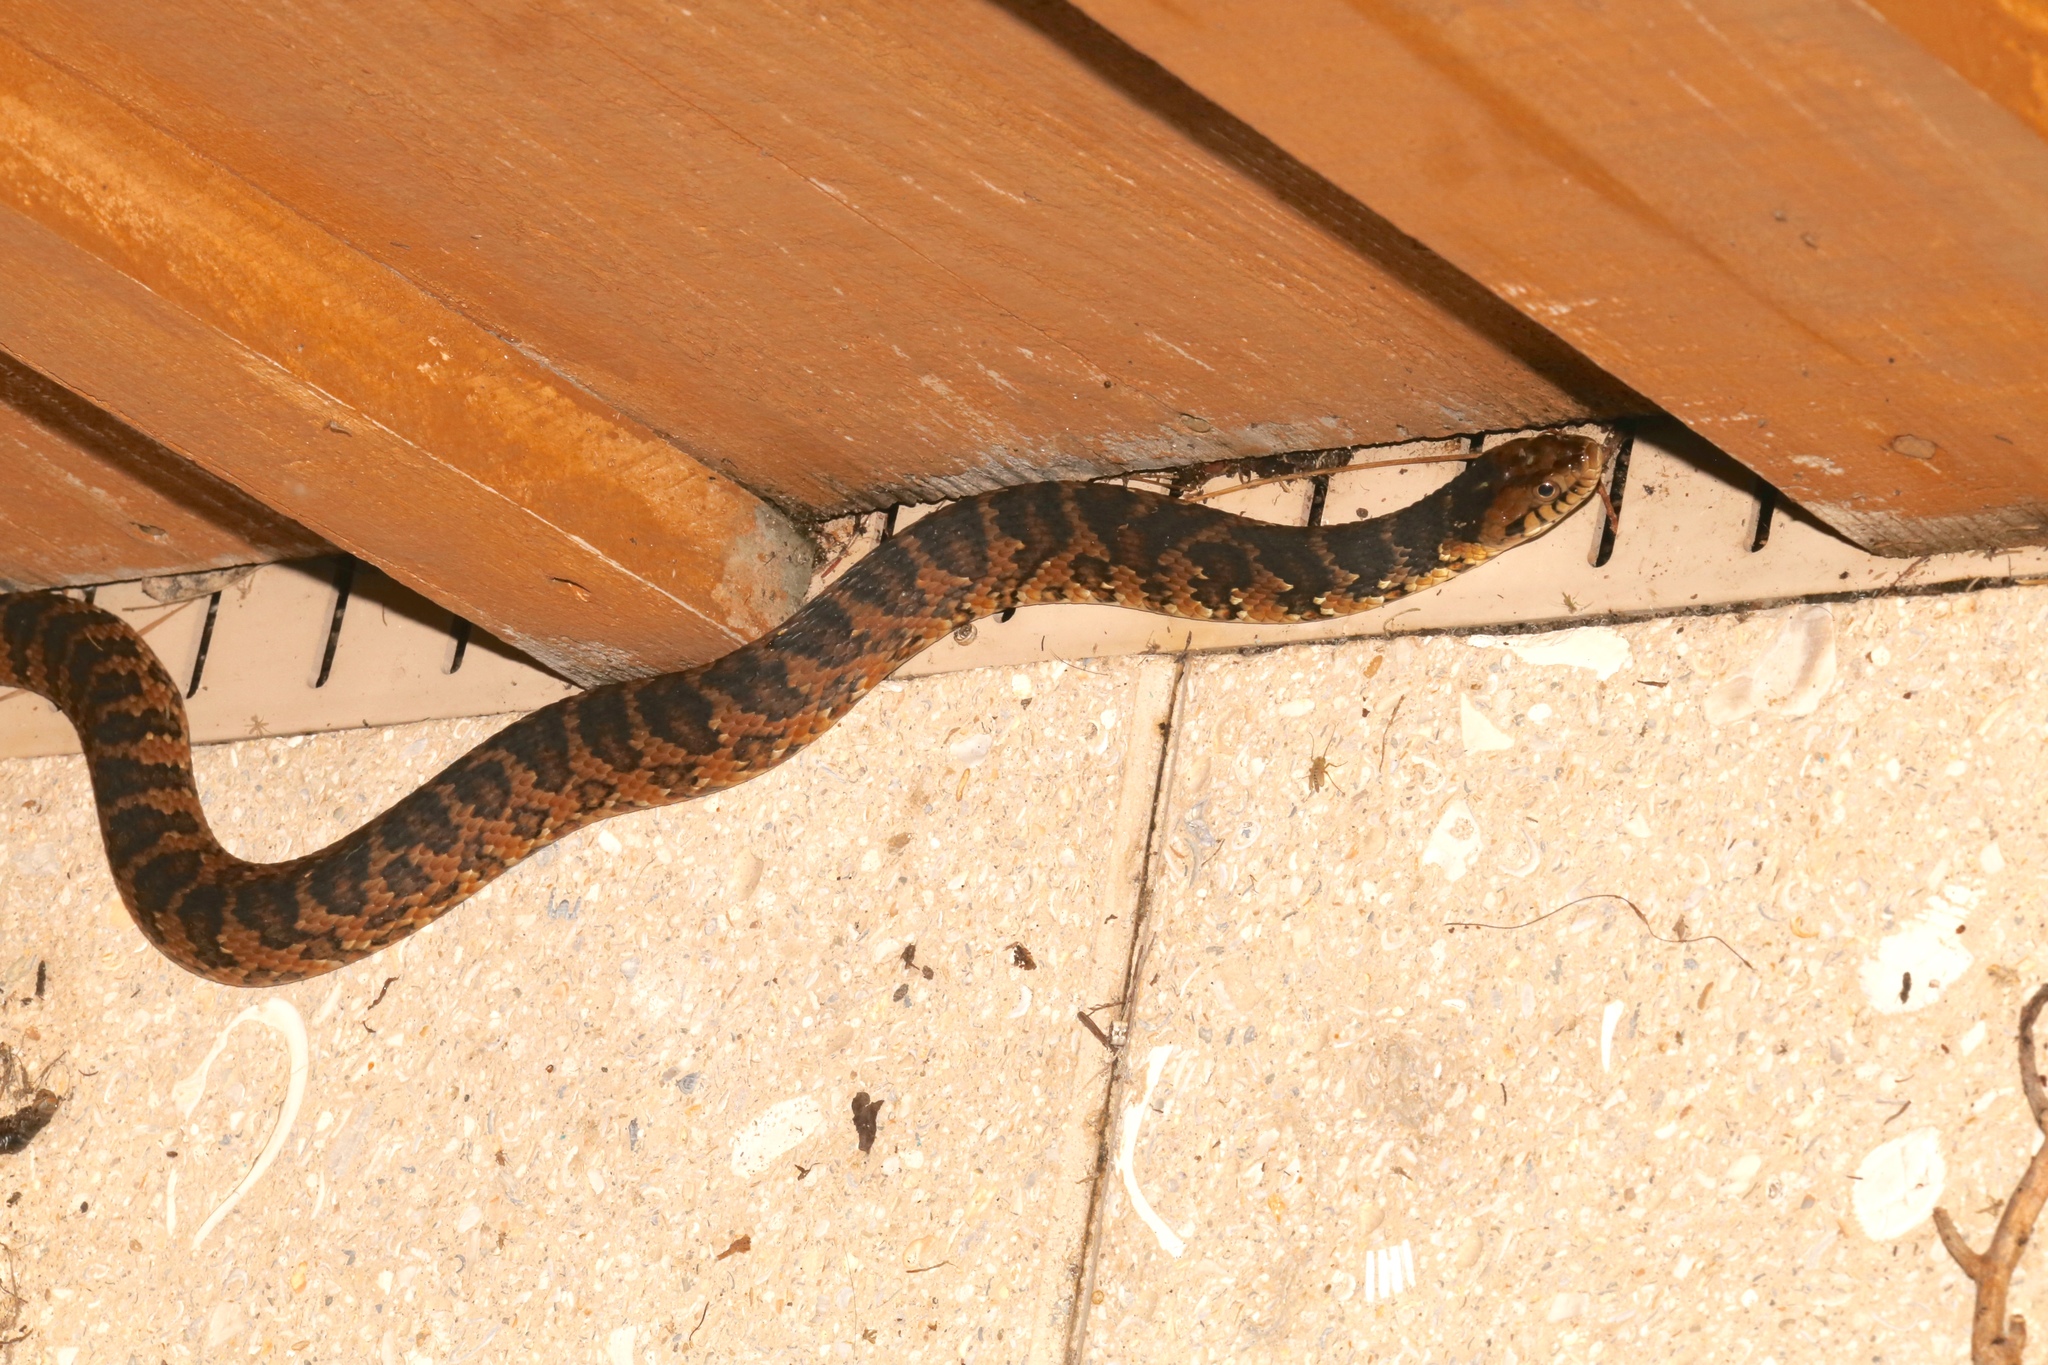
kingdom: Animalia
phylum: Chordata
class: Squamata
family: Colubridae
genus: Nerodia
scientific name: Nerodia fasciata
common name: Southern water snake
